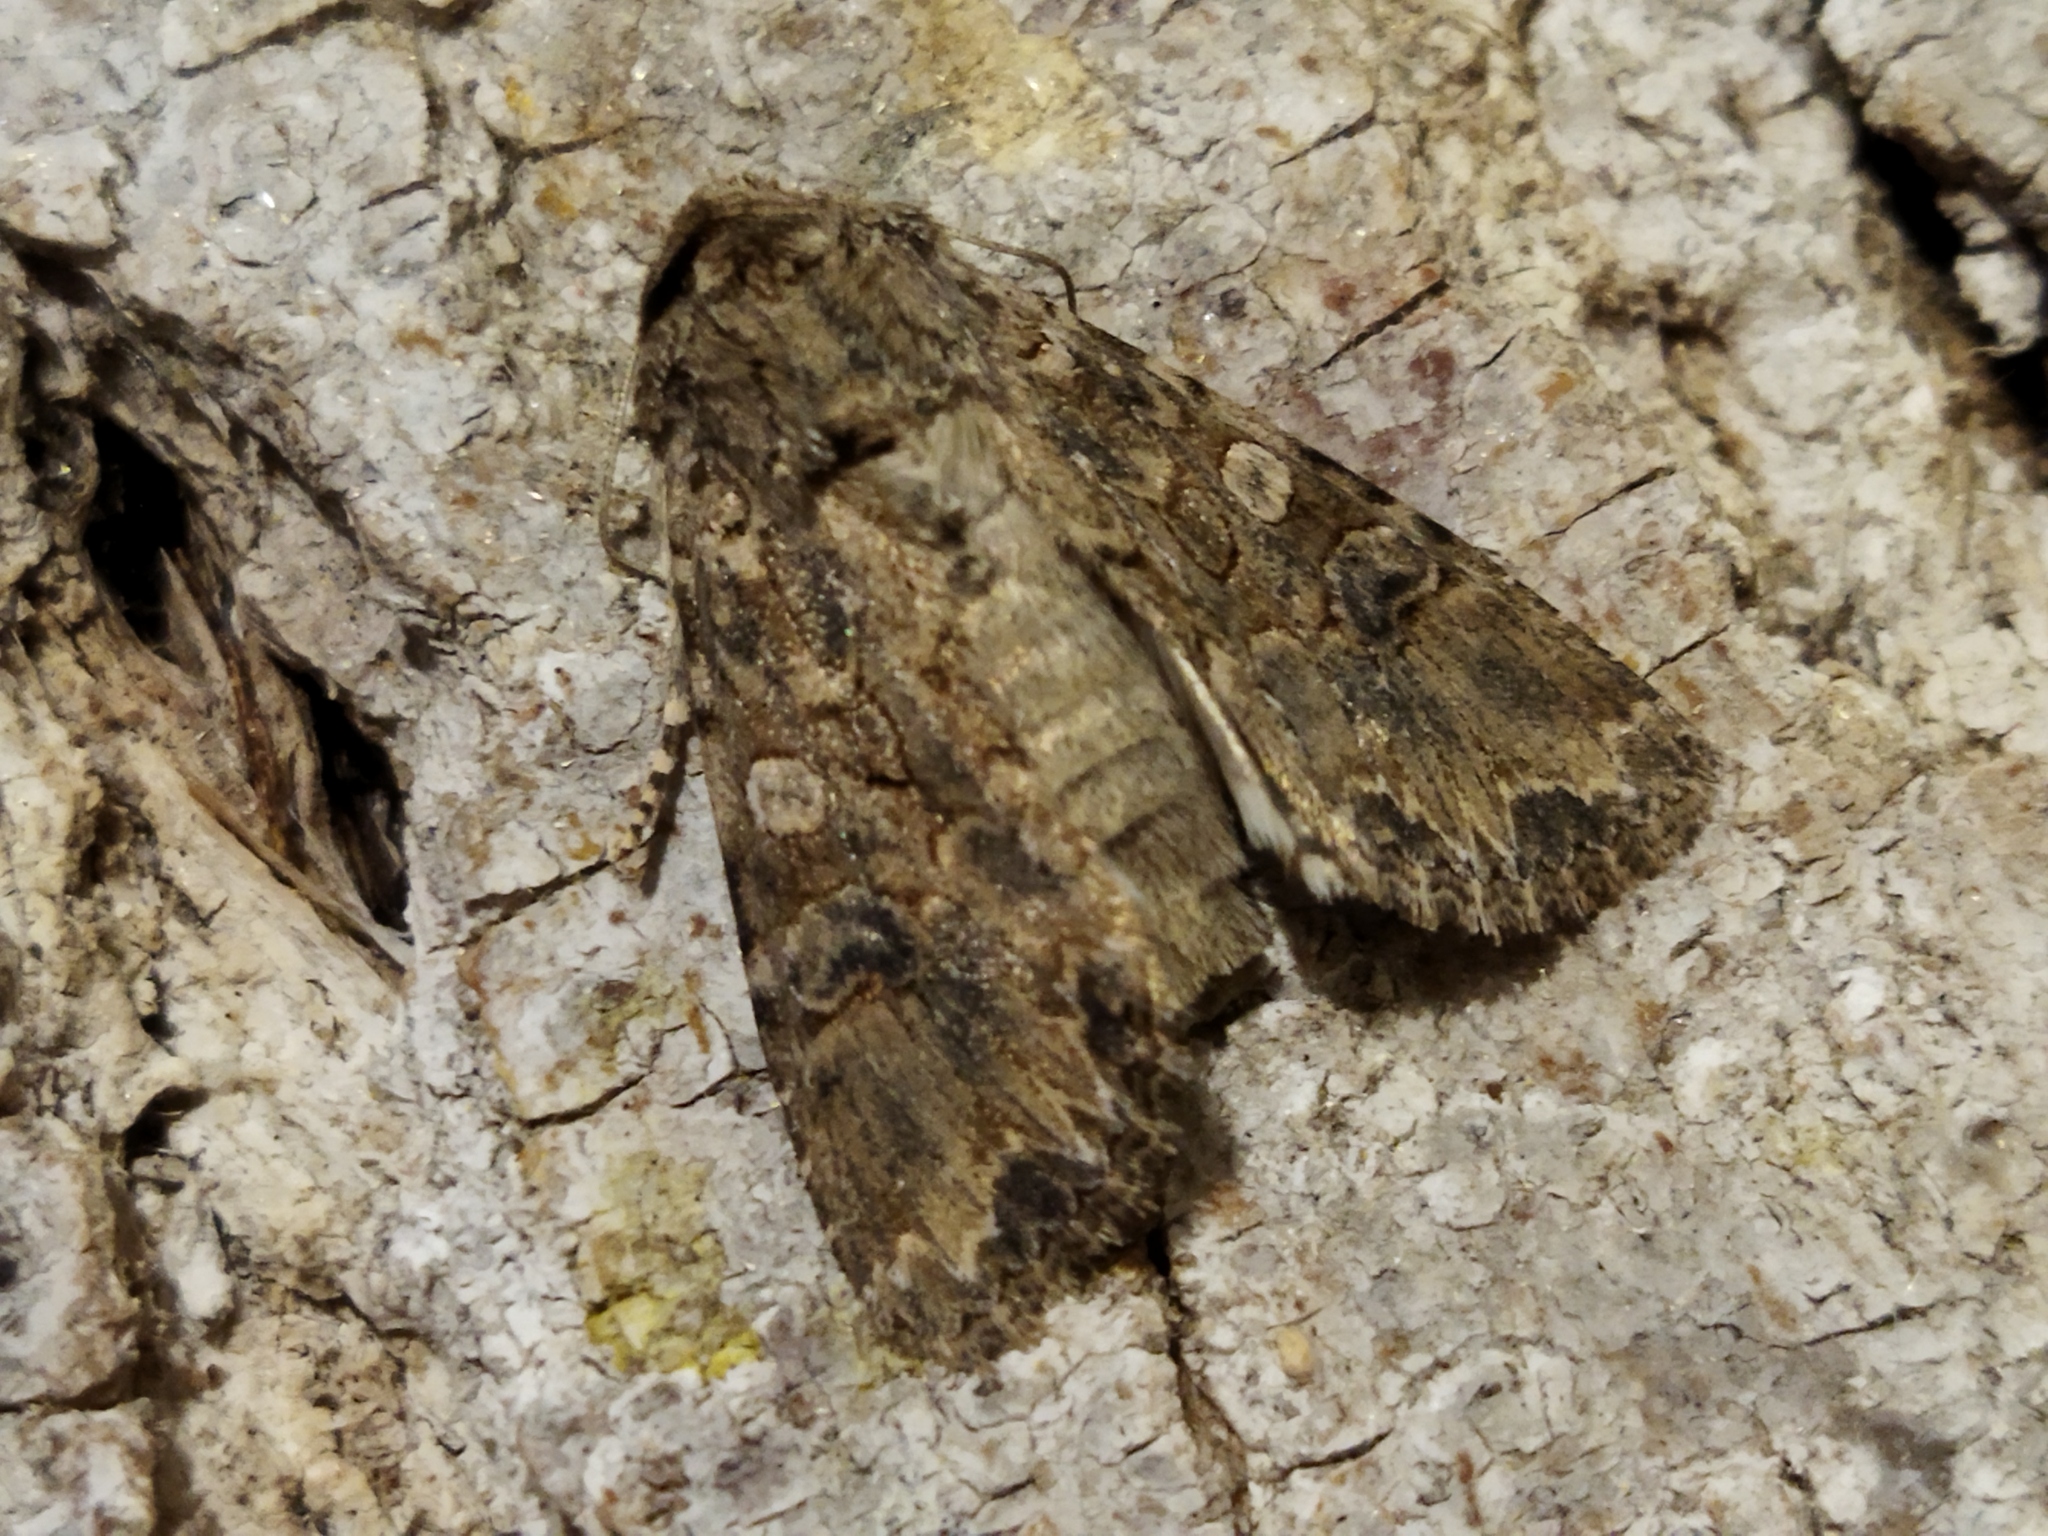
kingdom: Animalia
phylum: Arthropoda
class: Insecta
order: Lepidoptera
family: Noctuidae
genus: Anarta
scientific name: Anarta trifolii
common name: Clover cutworm moth
